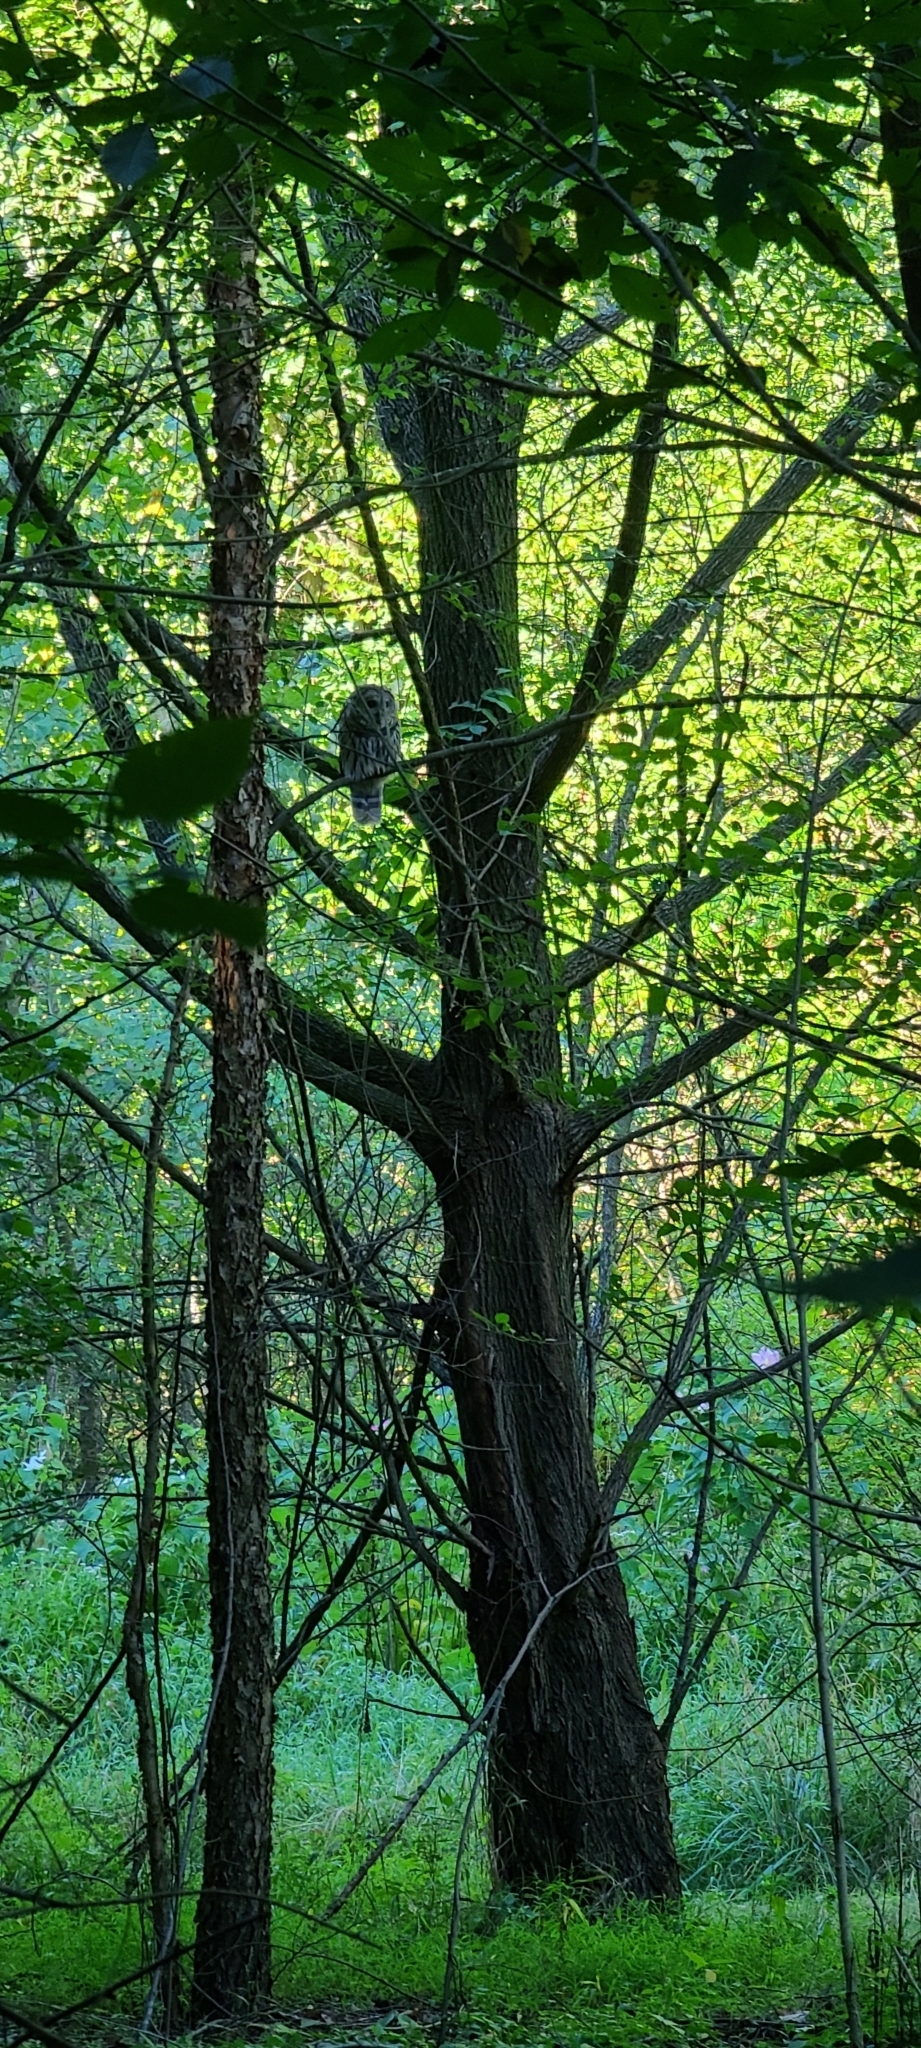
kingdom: Animalia
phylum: Chordata
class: Aves
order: Strigiformes
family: Strigidae
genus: Strix
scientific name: Strix varia
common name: Barred owl
